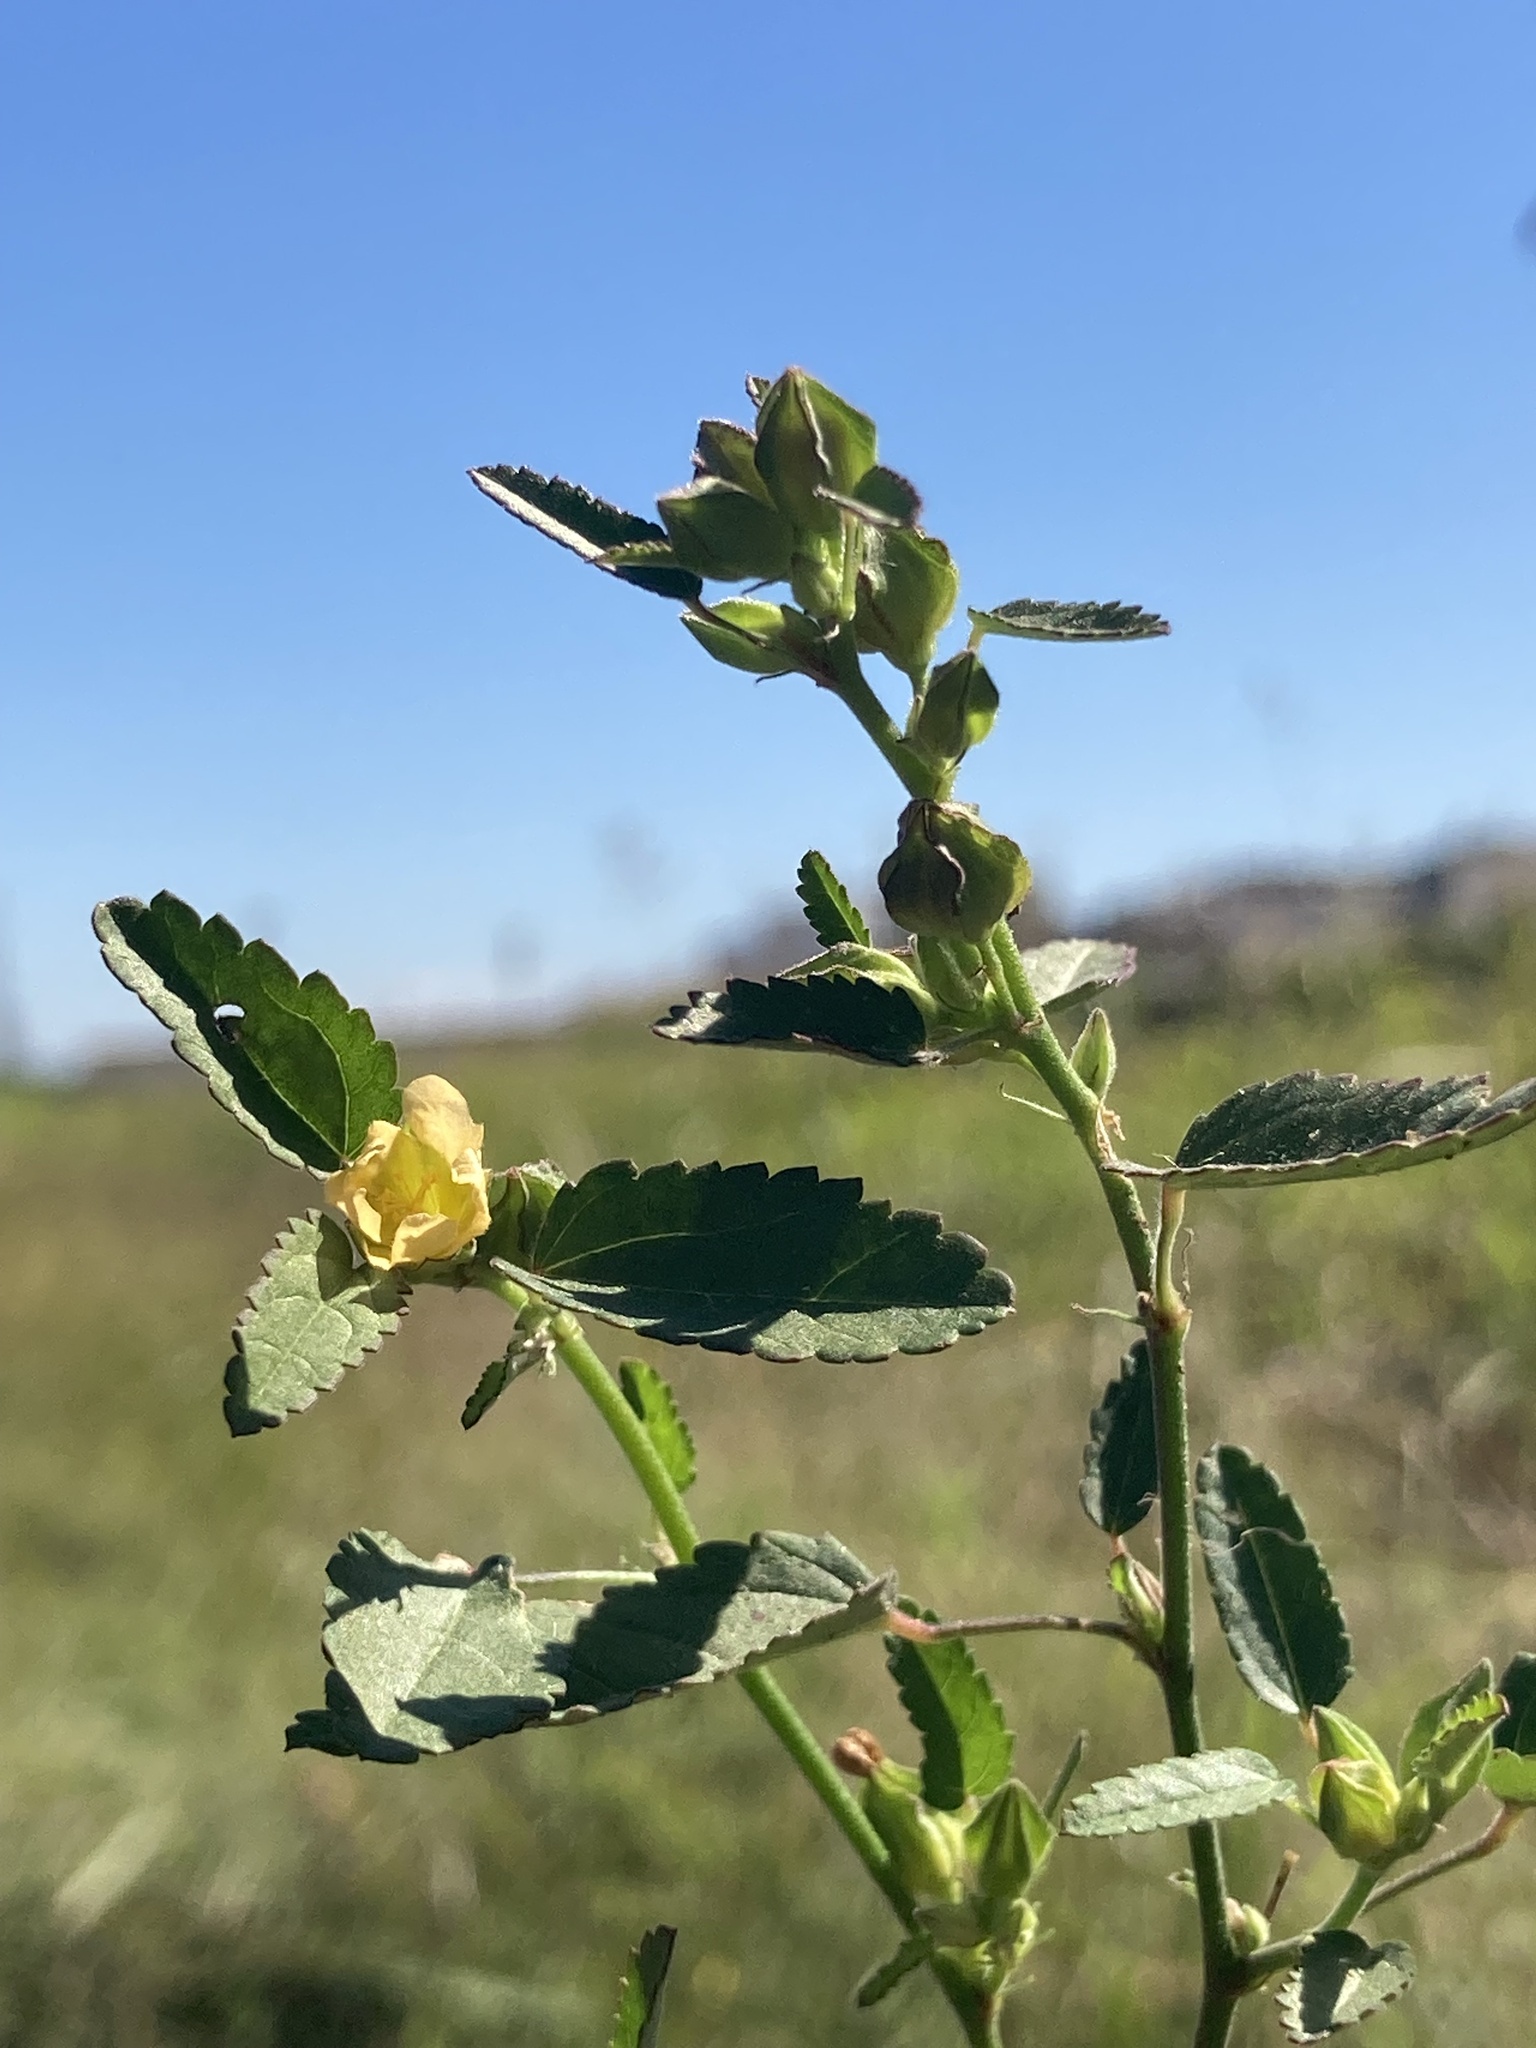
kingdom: Plantae
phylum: Tracheophyta
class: Magnoliopsida
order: Malvales
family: Malvaceae
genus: Sida
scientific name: Sida spinosa
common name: Prickly fanpetals
